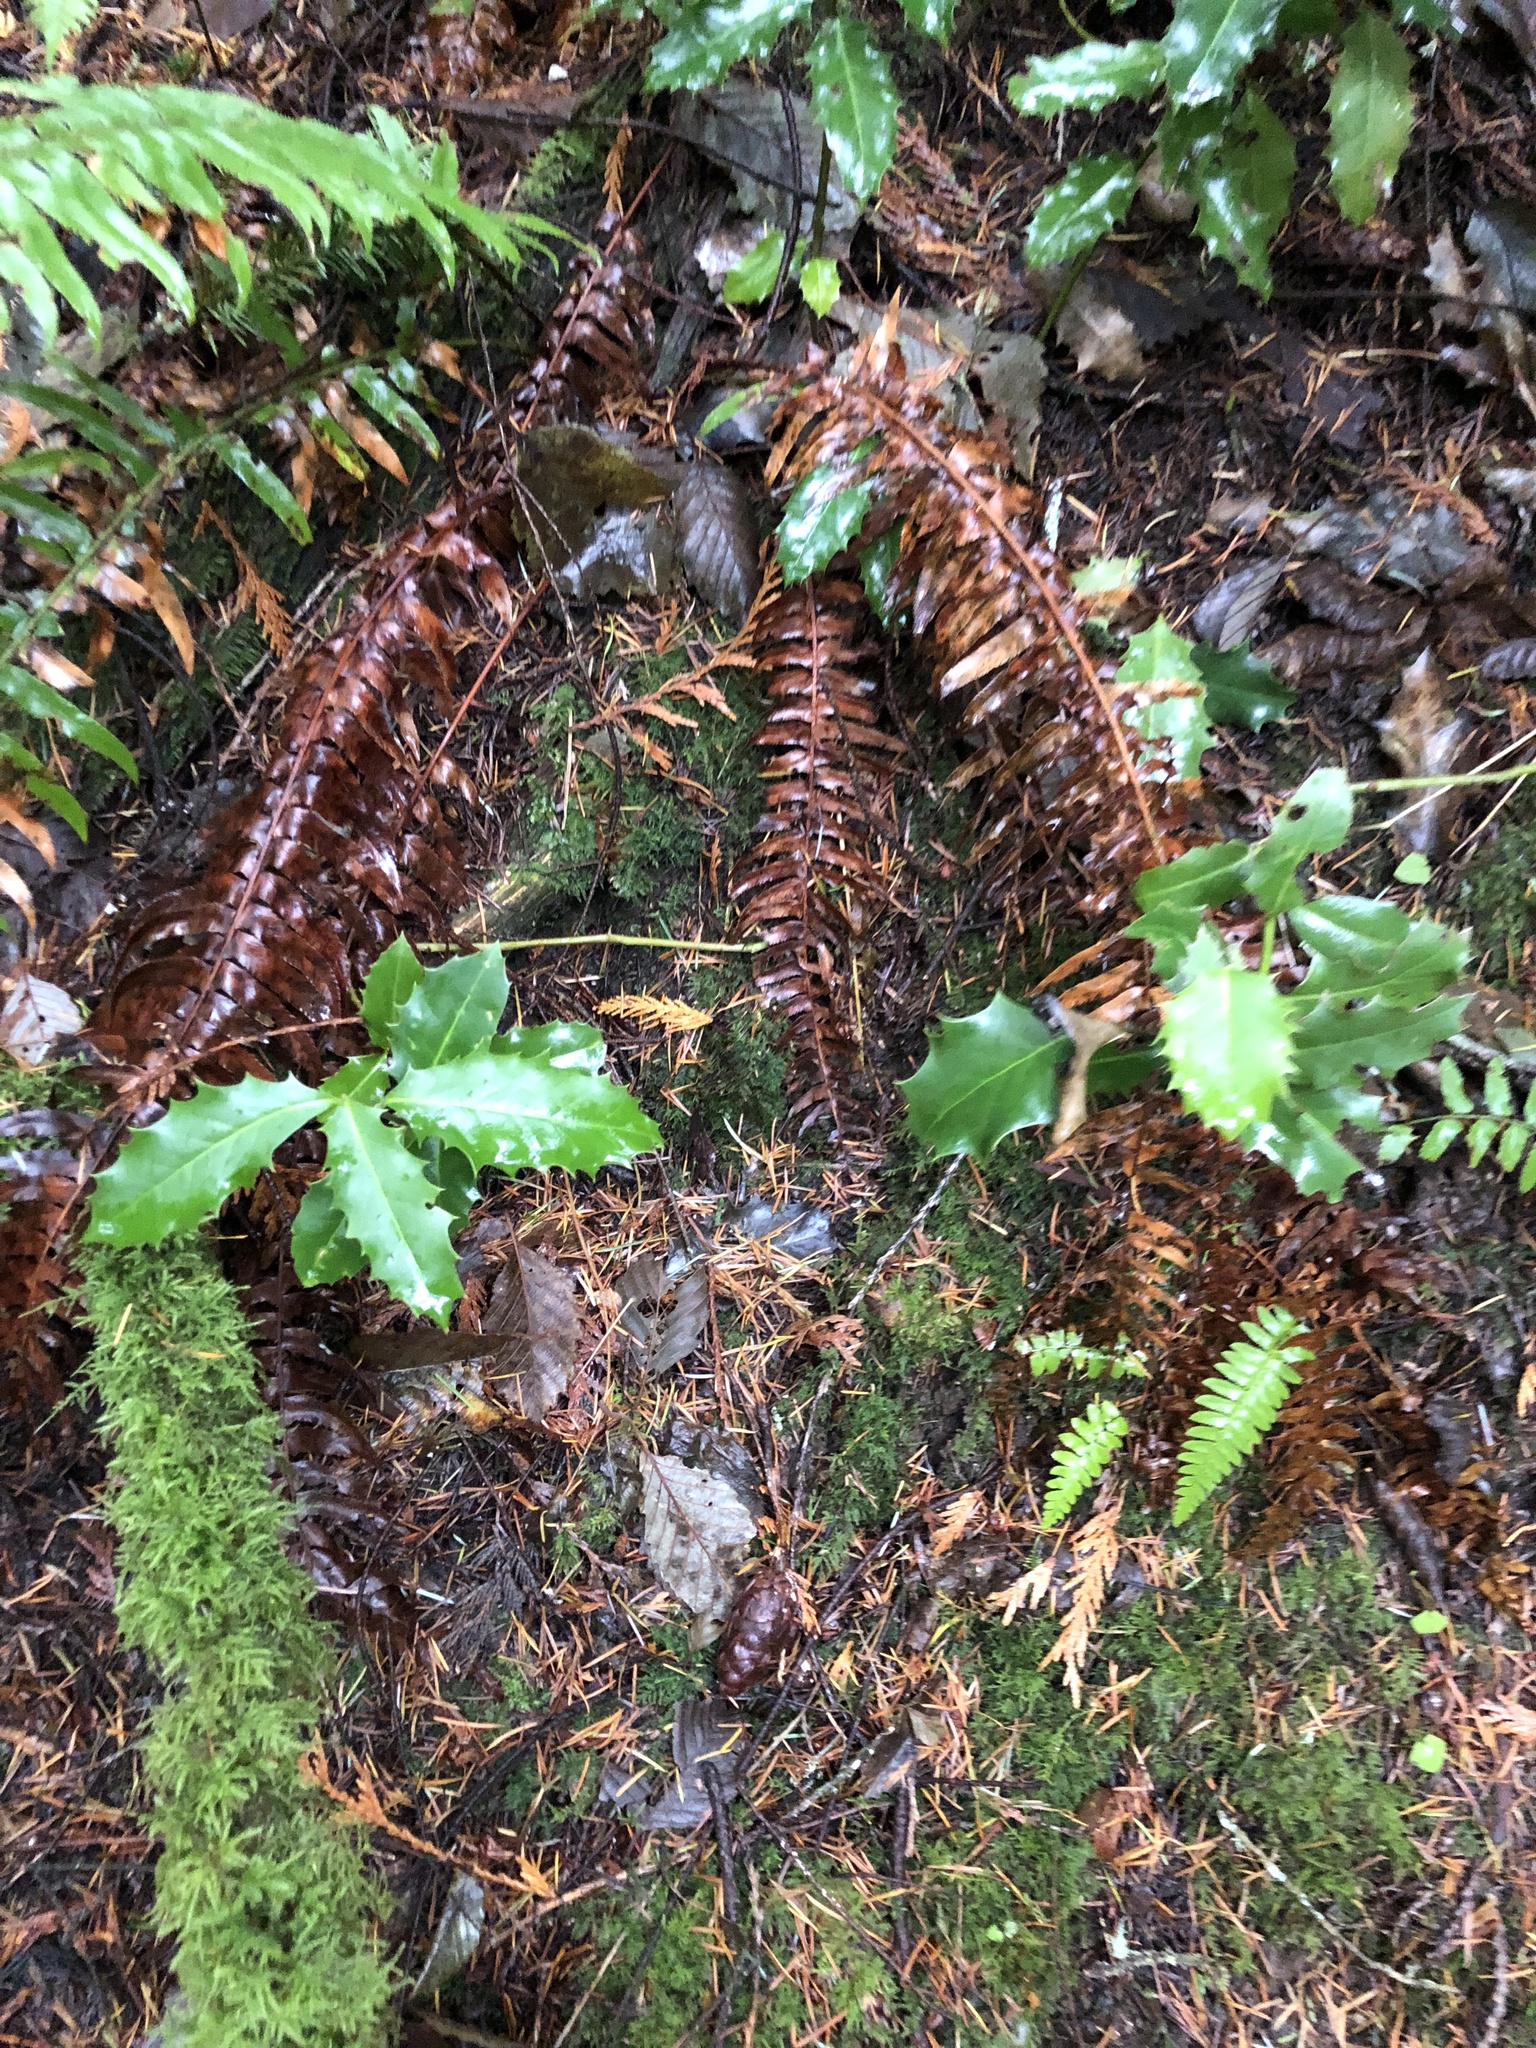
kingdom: Plantae
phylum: Tracheophyta
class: Magnoliopsida
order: Aquifoliales
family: Aquifoliaceae
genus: Ilex
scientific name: Ilex aquifolium
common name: English holly
